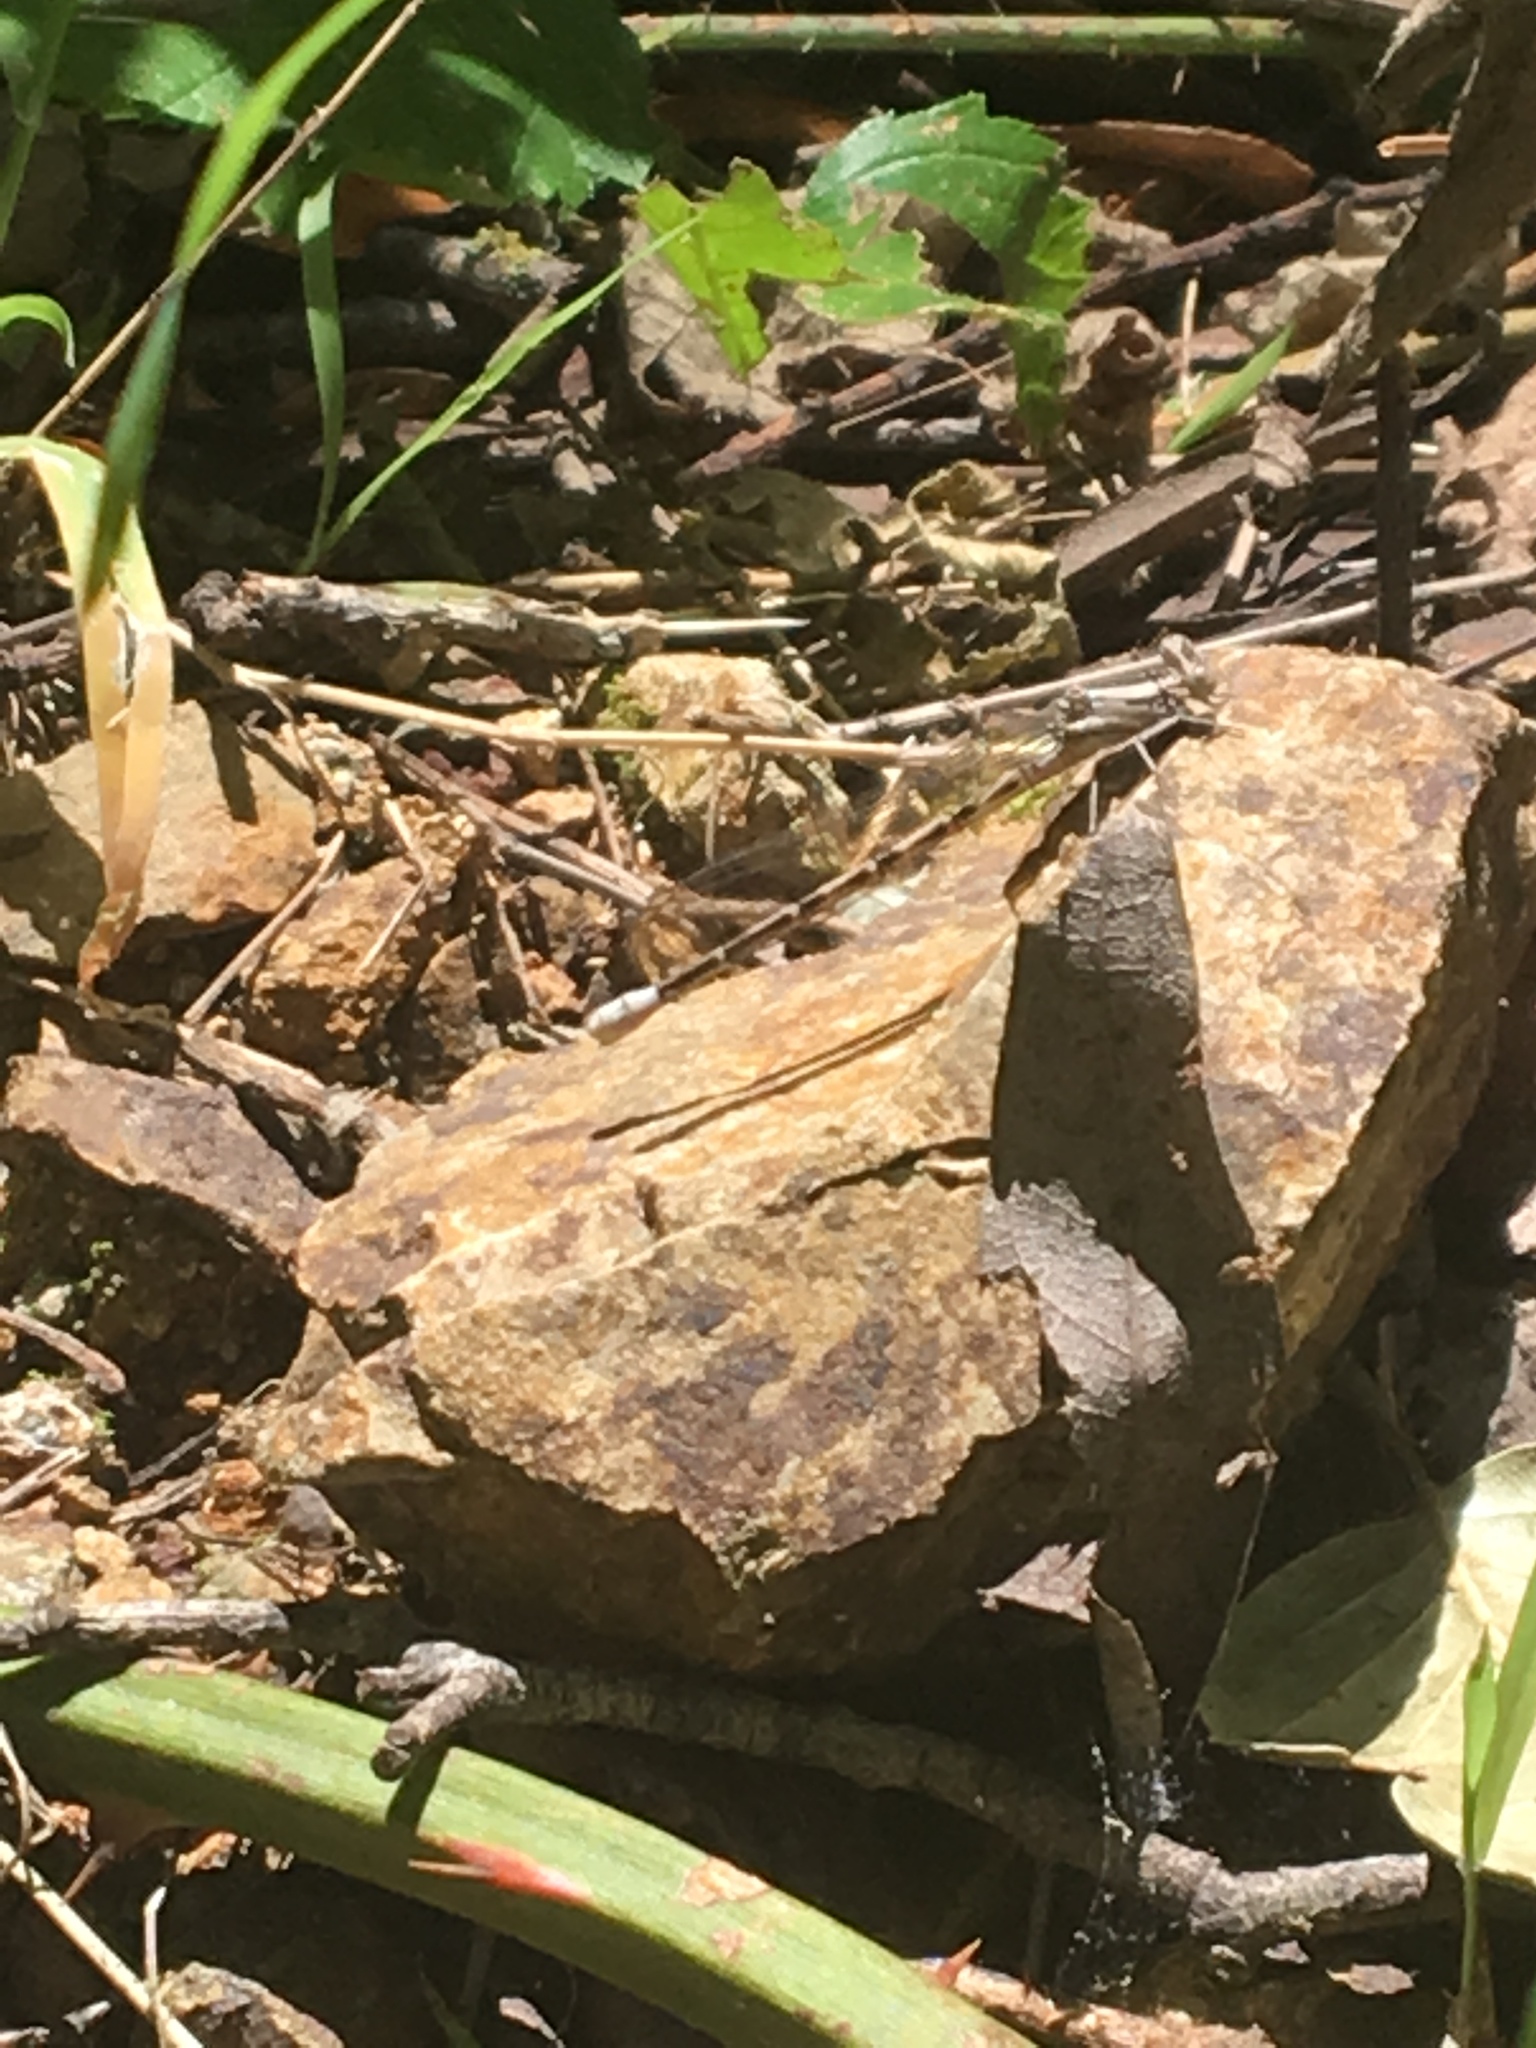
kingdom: Animalia
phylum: Arthropoda
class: Insecta
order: Odonata
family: Coenagrionidae
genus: Argia
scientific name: Argia vivida
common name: Vivid dancer
